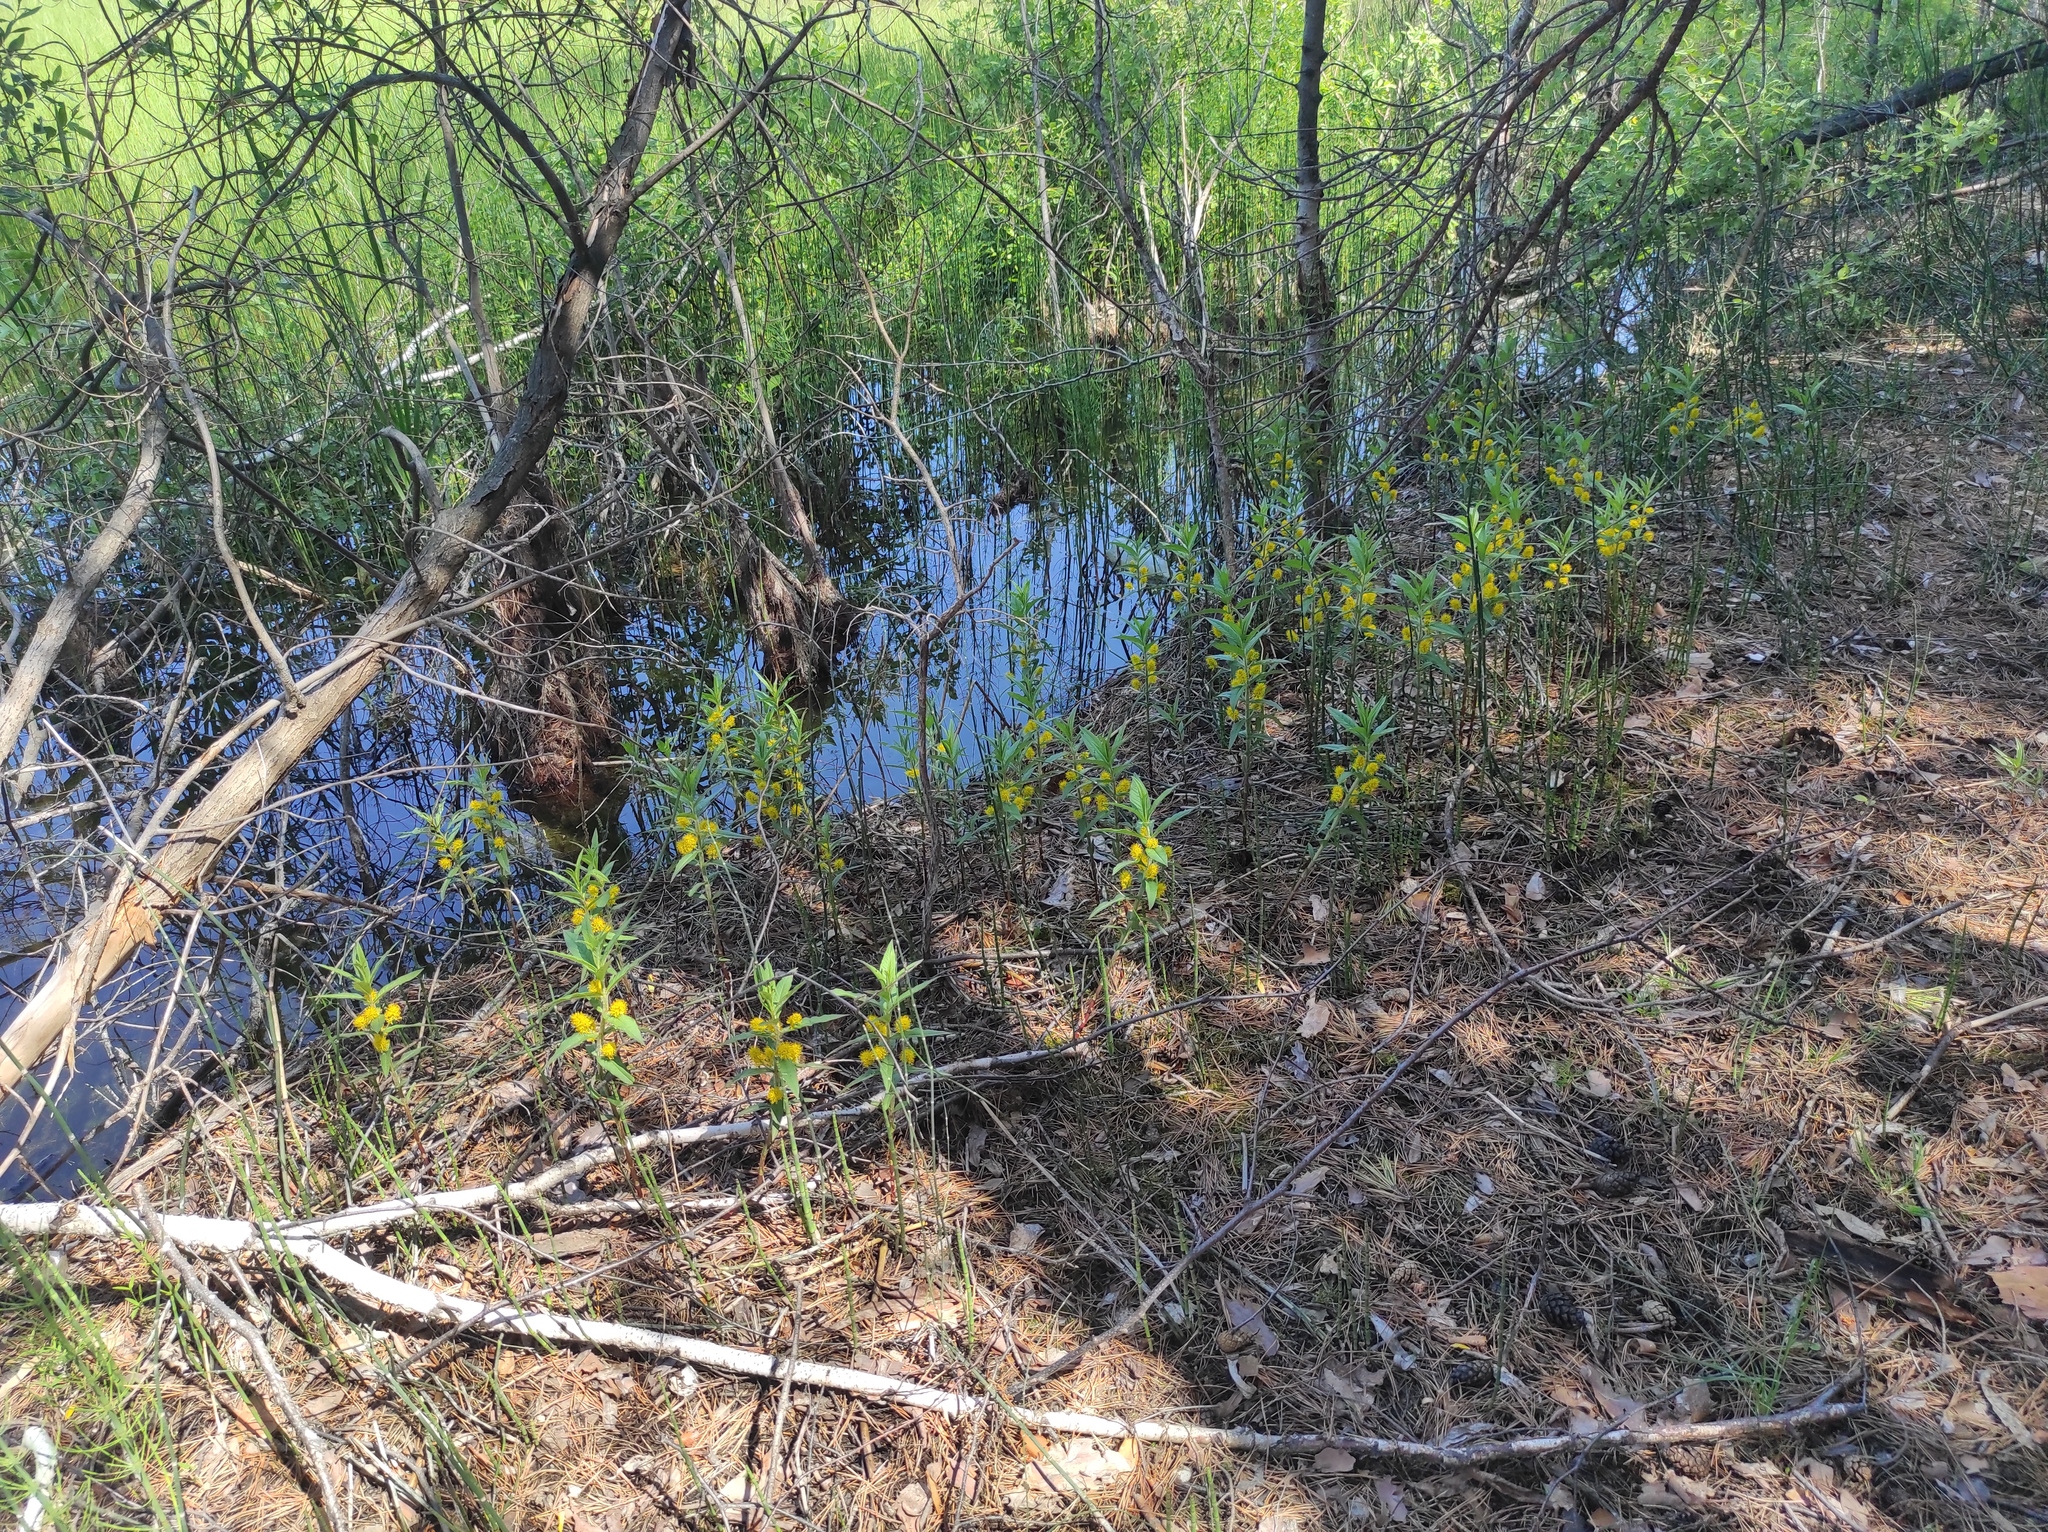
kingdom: Plantae
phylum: Tracheophyta
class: Magnoliopsida
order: Ericales
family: Primulaceae
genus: Lysimachia
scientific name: Lysimachia thyrsiflora
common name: Tufted loosestrife
